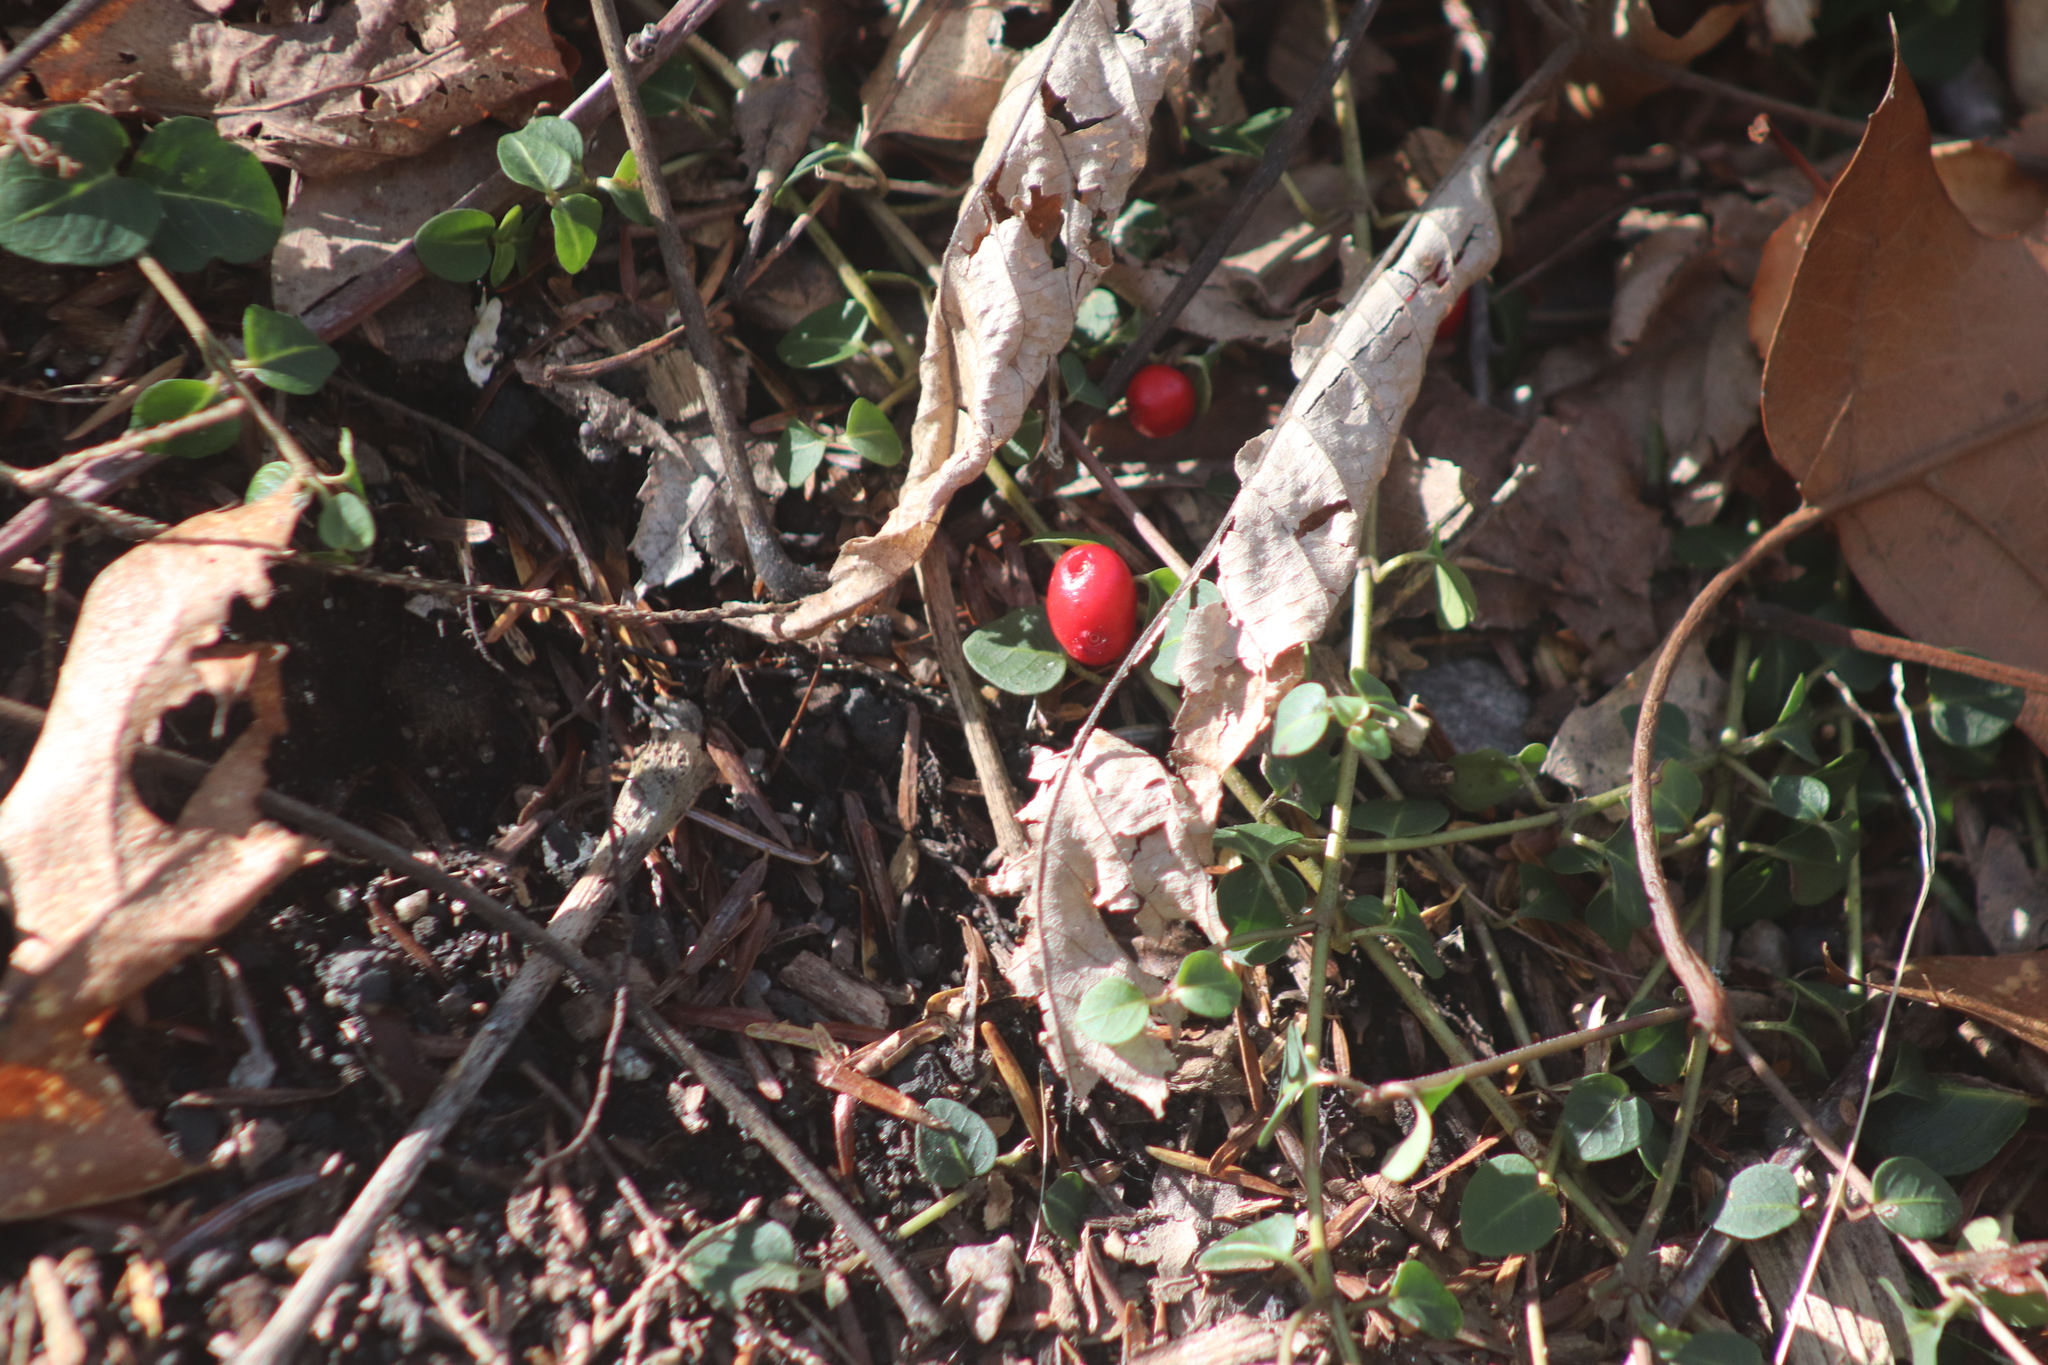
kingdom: Plantae
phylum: Tracheophyta
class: Magnoliopsida
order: Gentianales
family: Rubiaceae
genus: Mitchella
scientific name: Mitchella repens
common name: Partridge-berry
